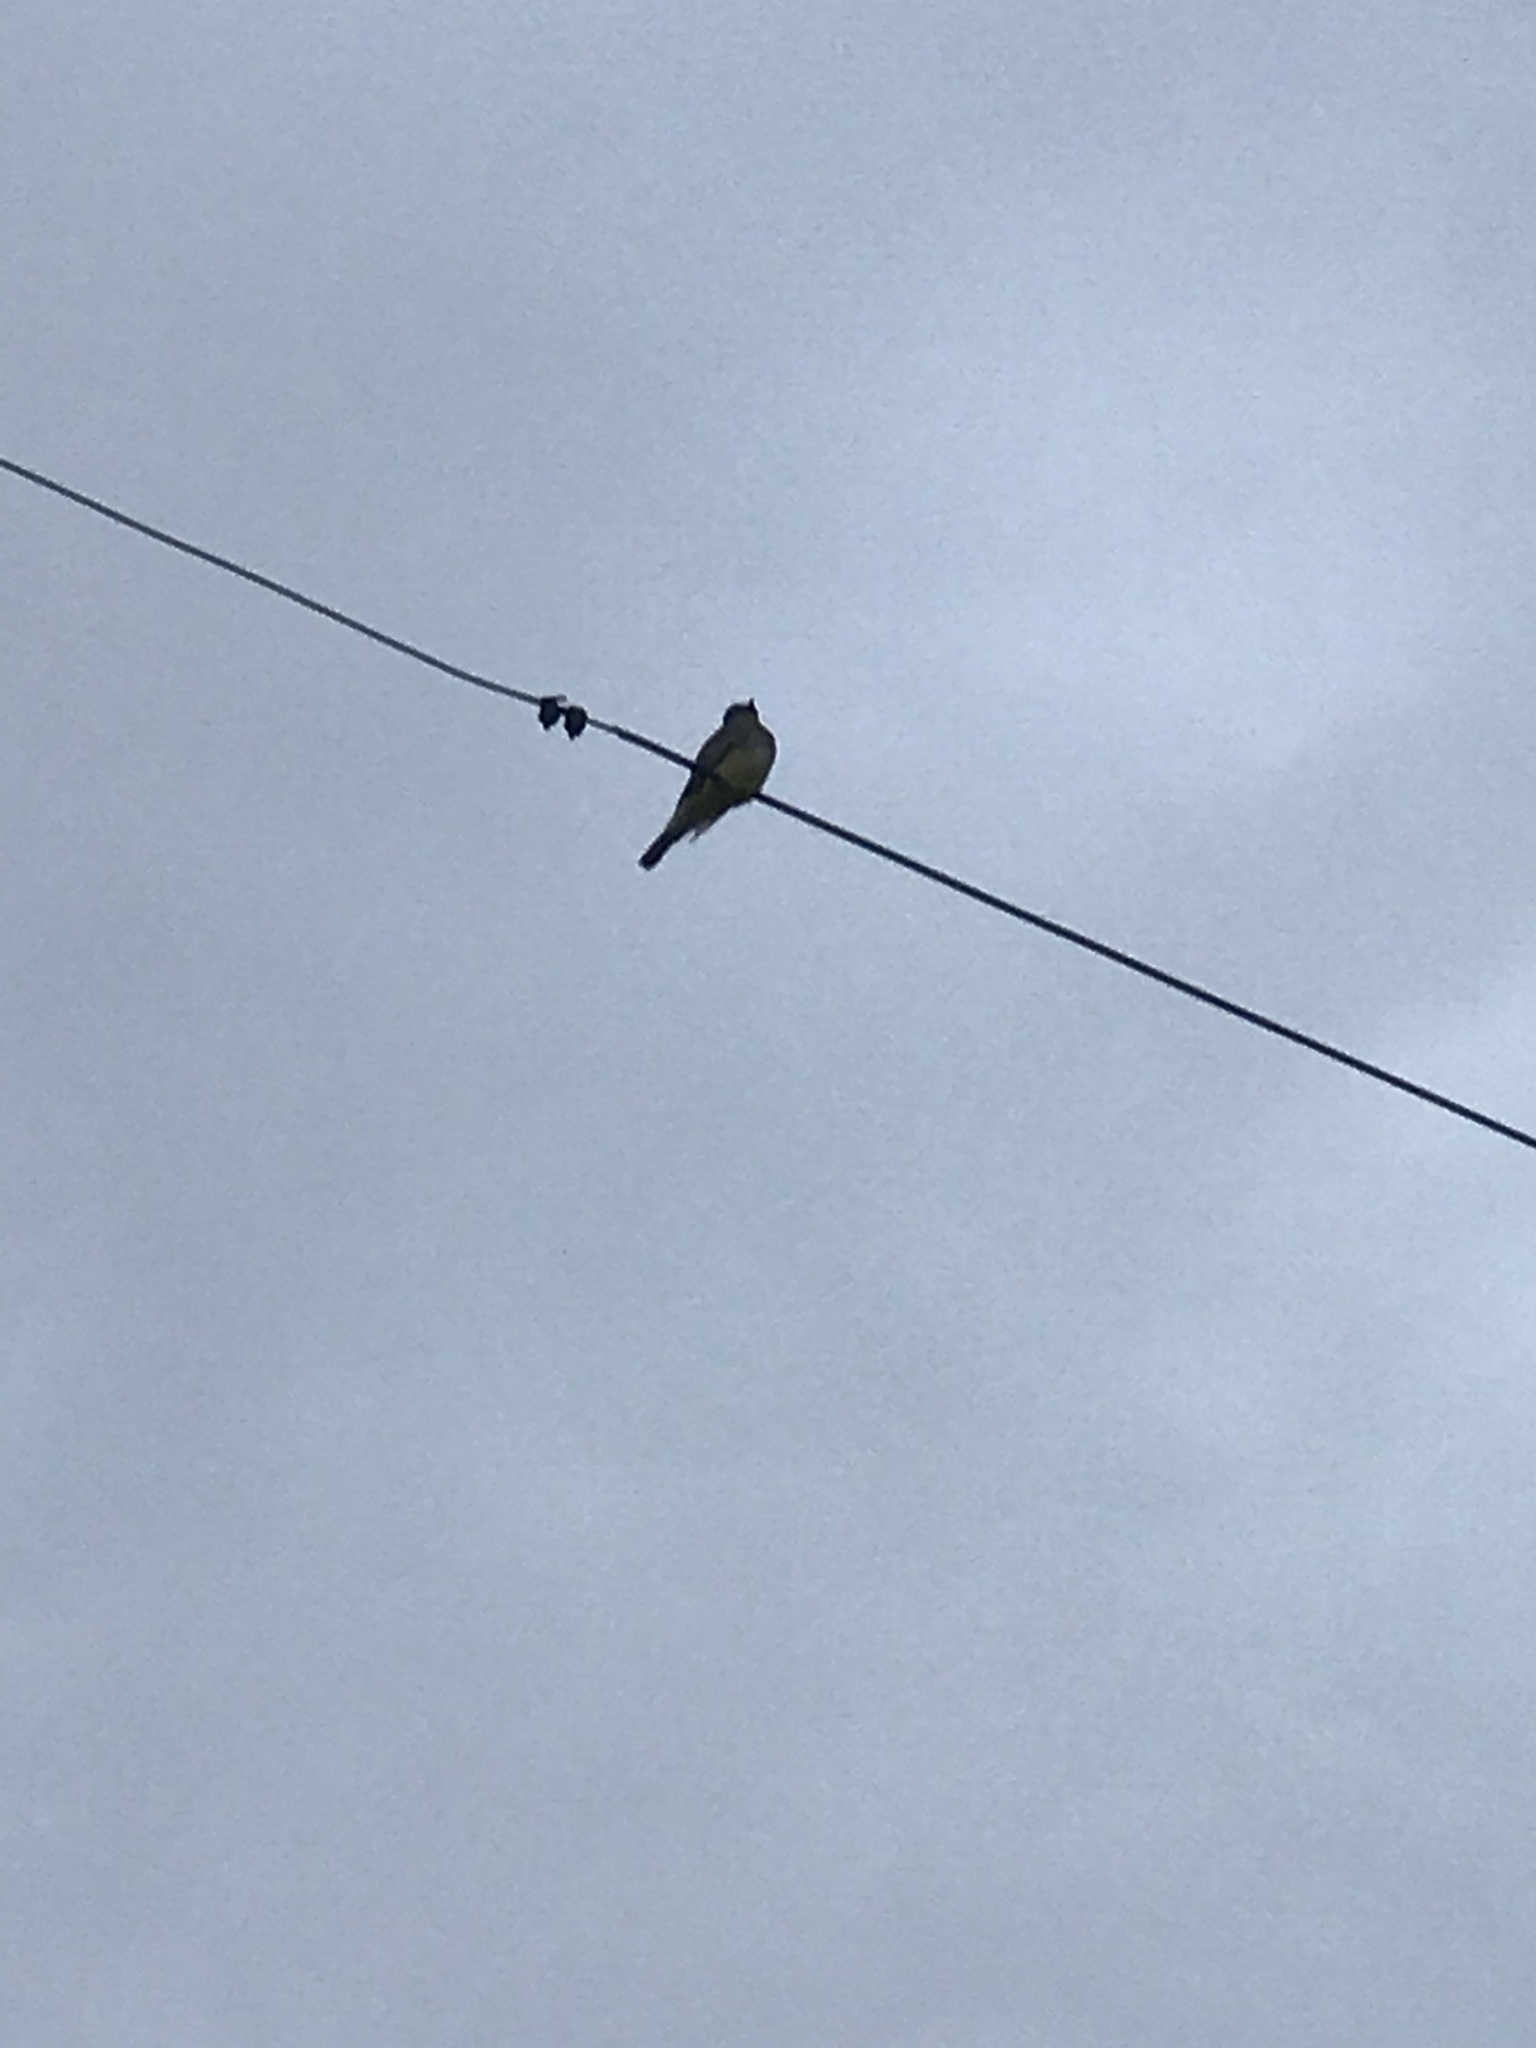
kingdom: Animalia
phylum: Chordata
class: Aves
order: Passeriformes
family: Tyrannidae
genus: Tyrannus
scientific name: Tyrannus vociferans
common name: Cassin's kingbird
